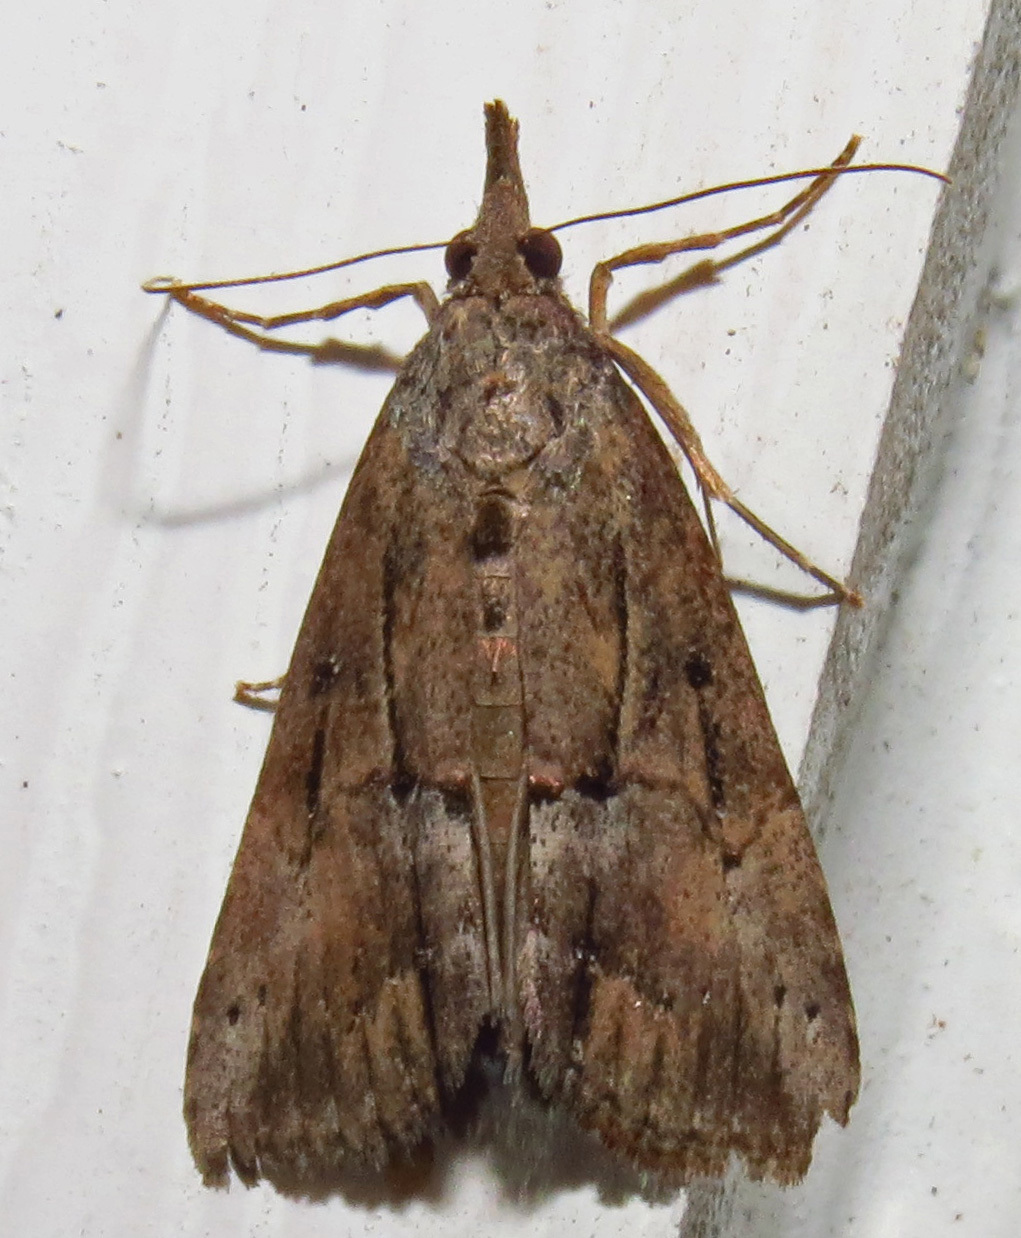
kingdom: Animalia
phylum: Arthropoda
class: Insecta
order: Lepidoptera
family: Erebidae
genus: Hypena
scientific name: Hypena scabra
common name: Green cloverworm
